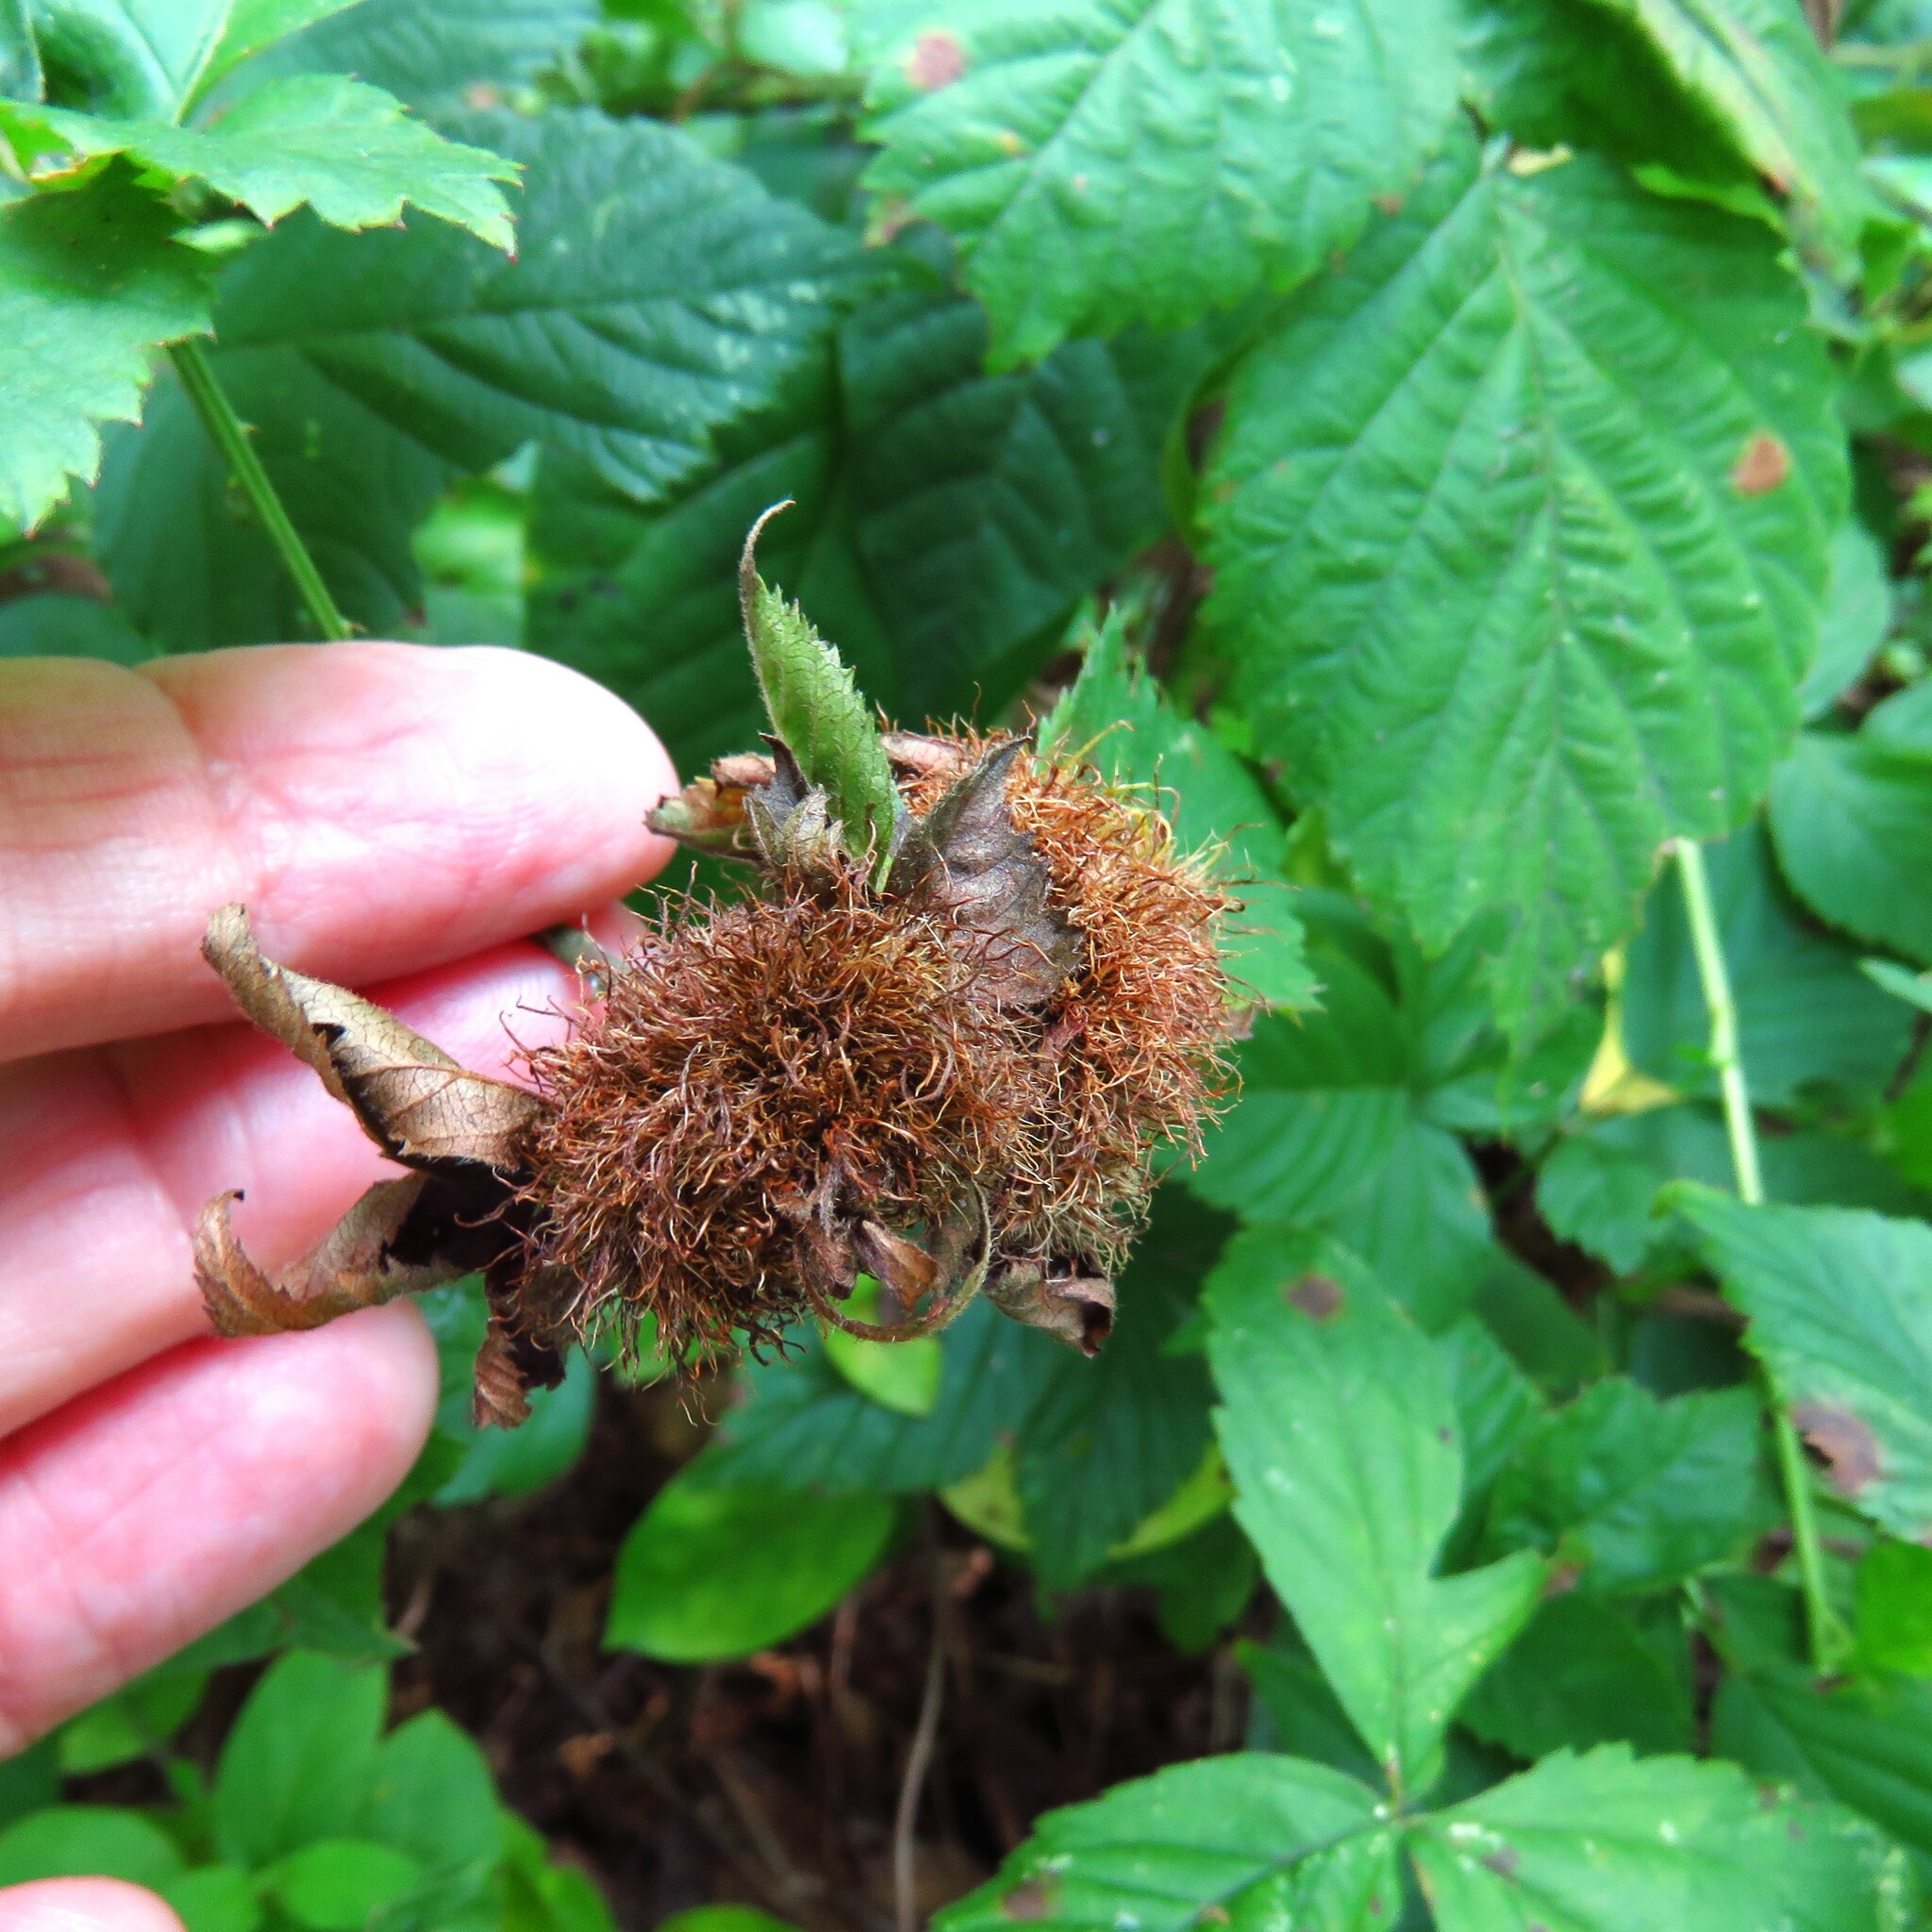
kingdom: Animalia
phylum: Arthropoda
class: Insecta
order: Hymenoptera
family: Cynipidae
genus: Diastrophus
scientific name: Diastrophus
